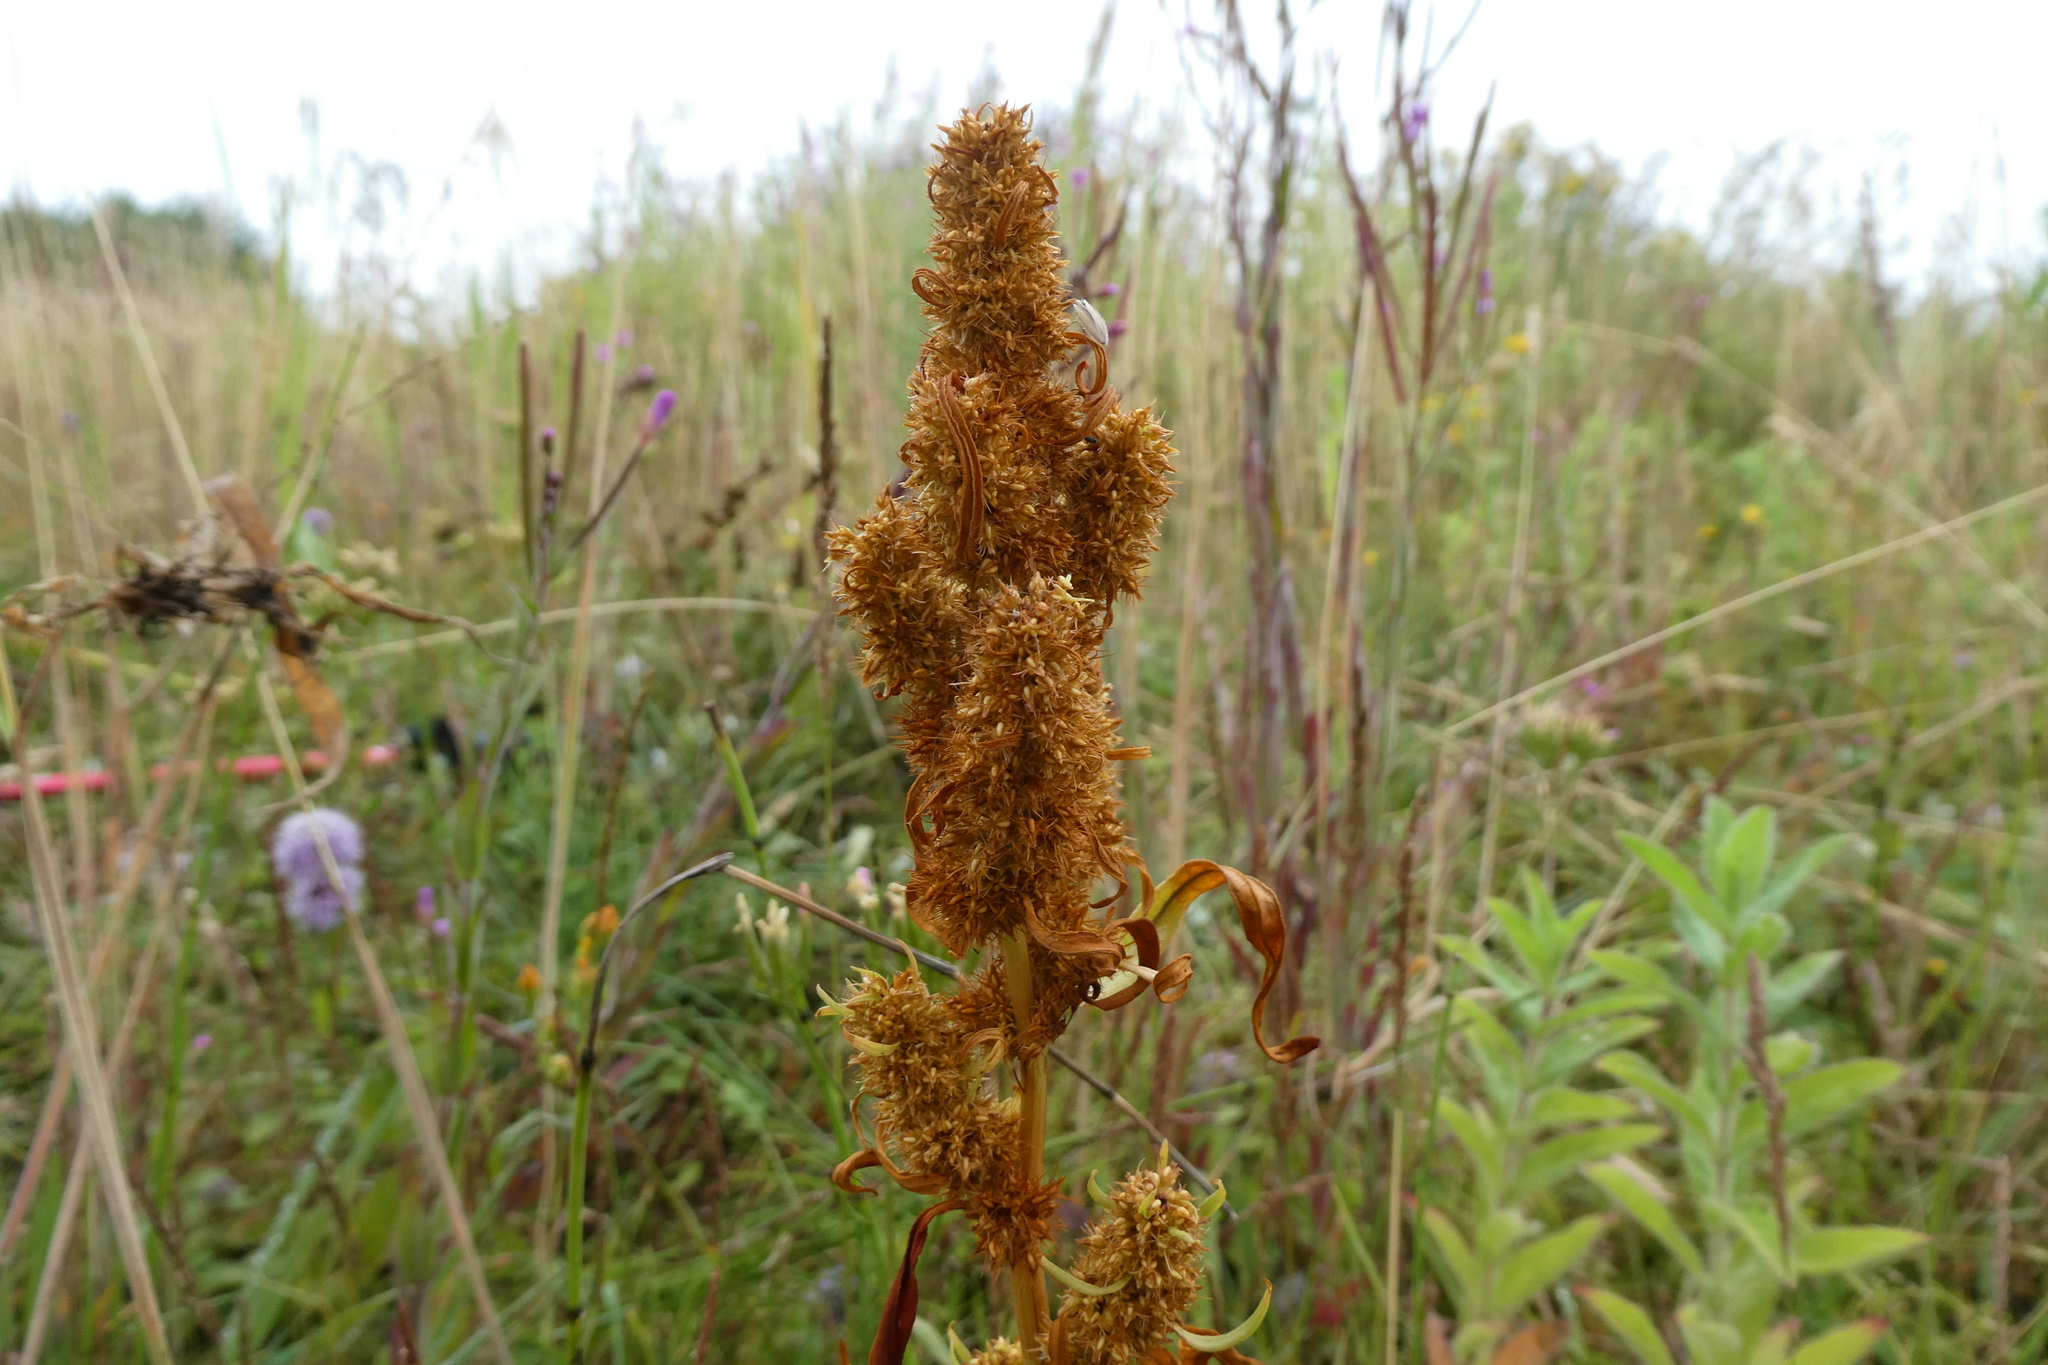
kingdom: Plantae
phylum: Tracheophyta
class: Magnoliopsida
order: Caryophyllales
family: Polygonaceae
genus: Rumex
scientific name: Rumex maritimus
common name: Golden dock
